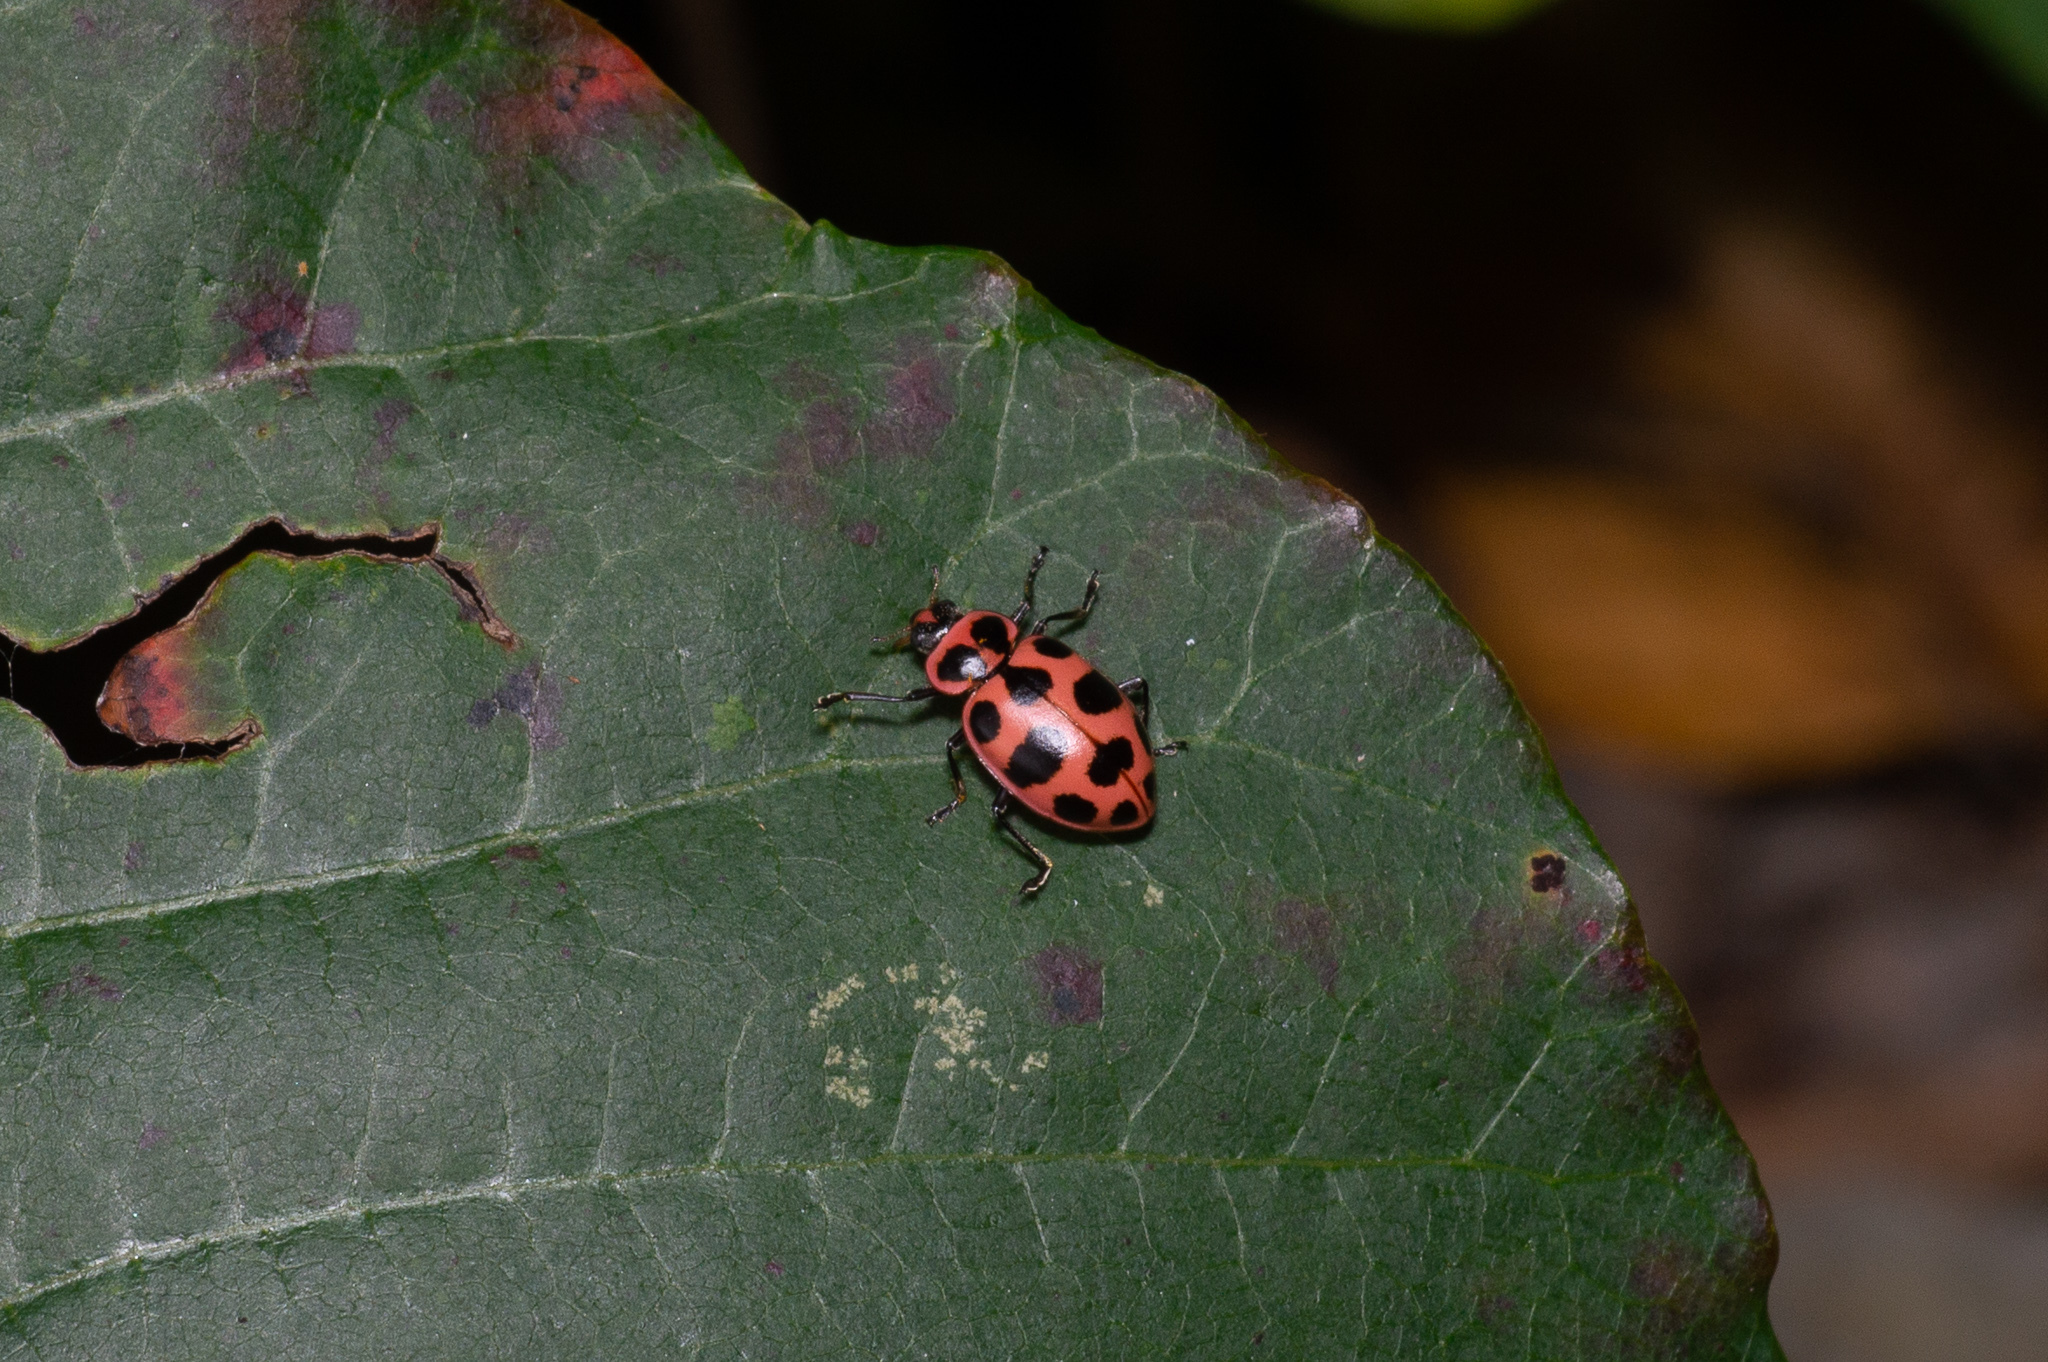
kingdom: Animalia
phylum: Arthropoda
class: Insecta
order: Coleoptera
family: Coccinellidae
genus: Coleomegilla
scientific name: Coleomegilla maculata
